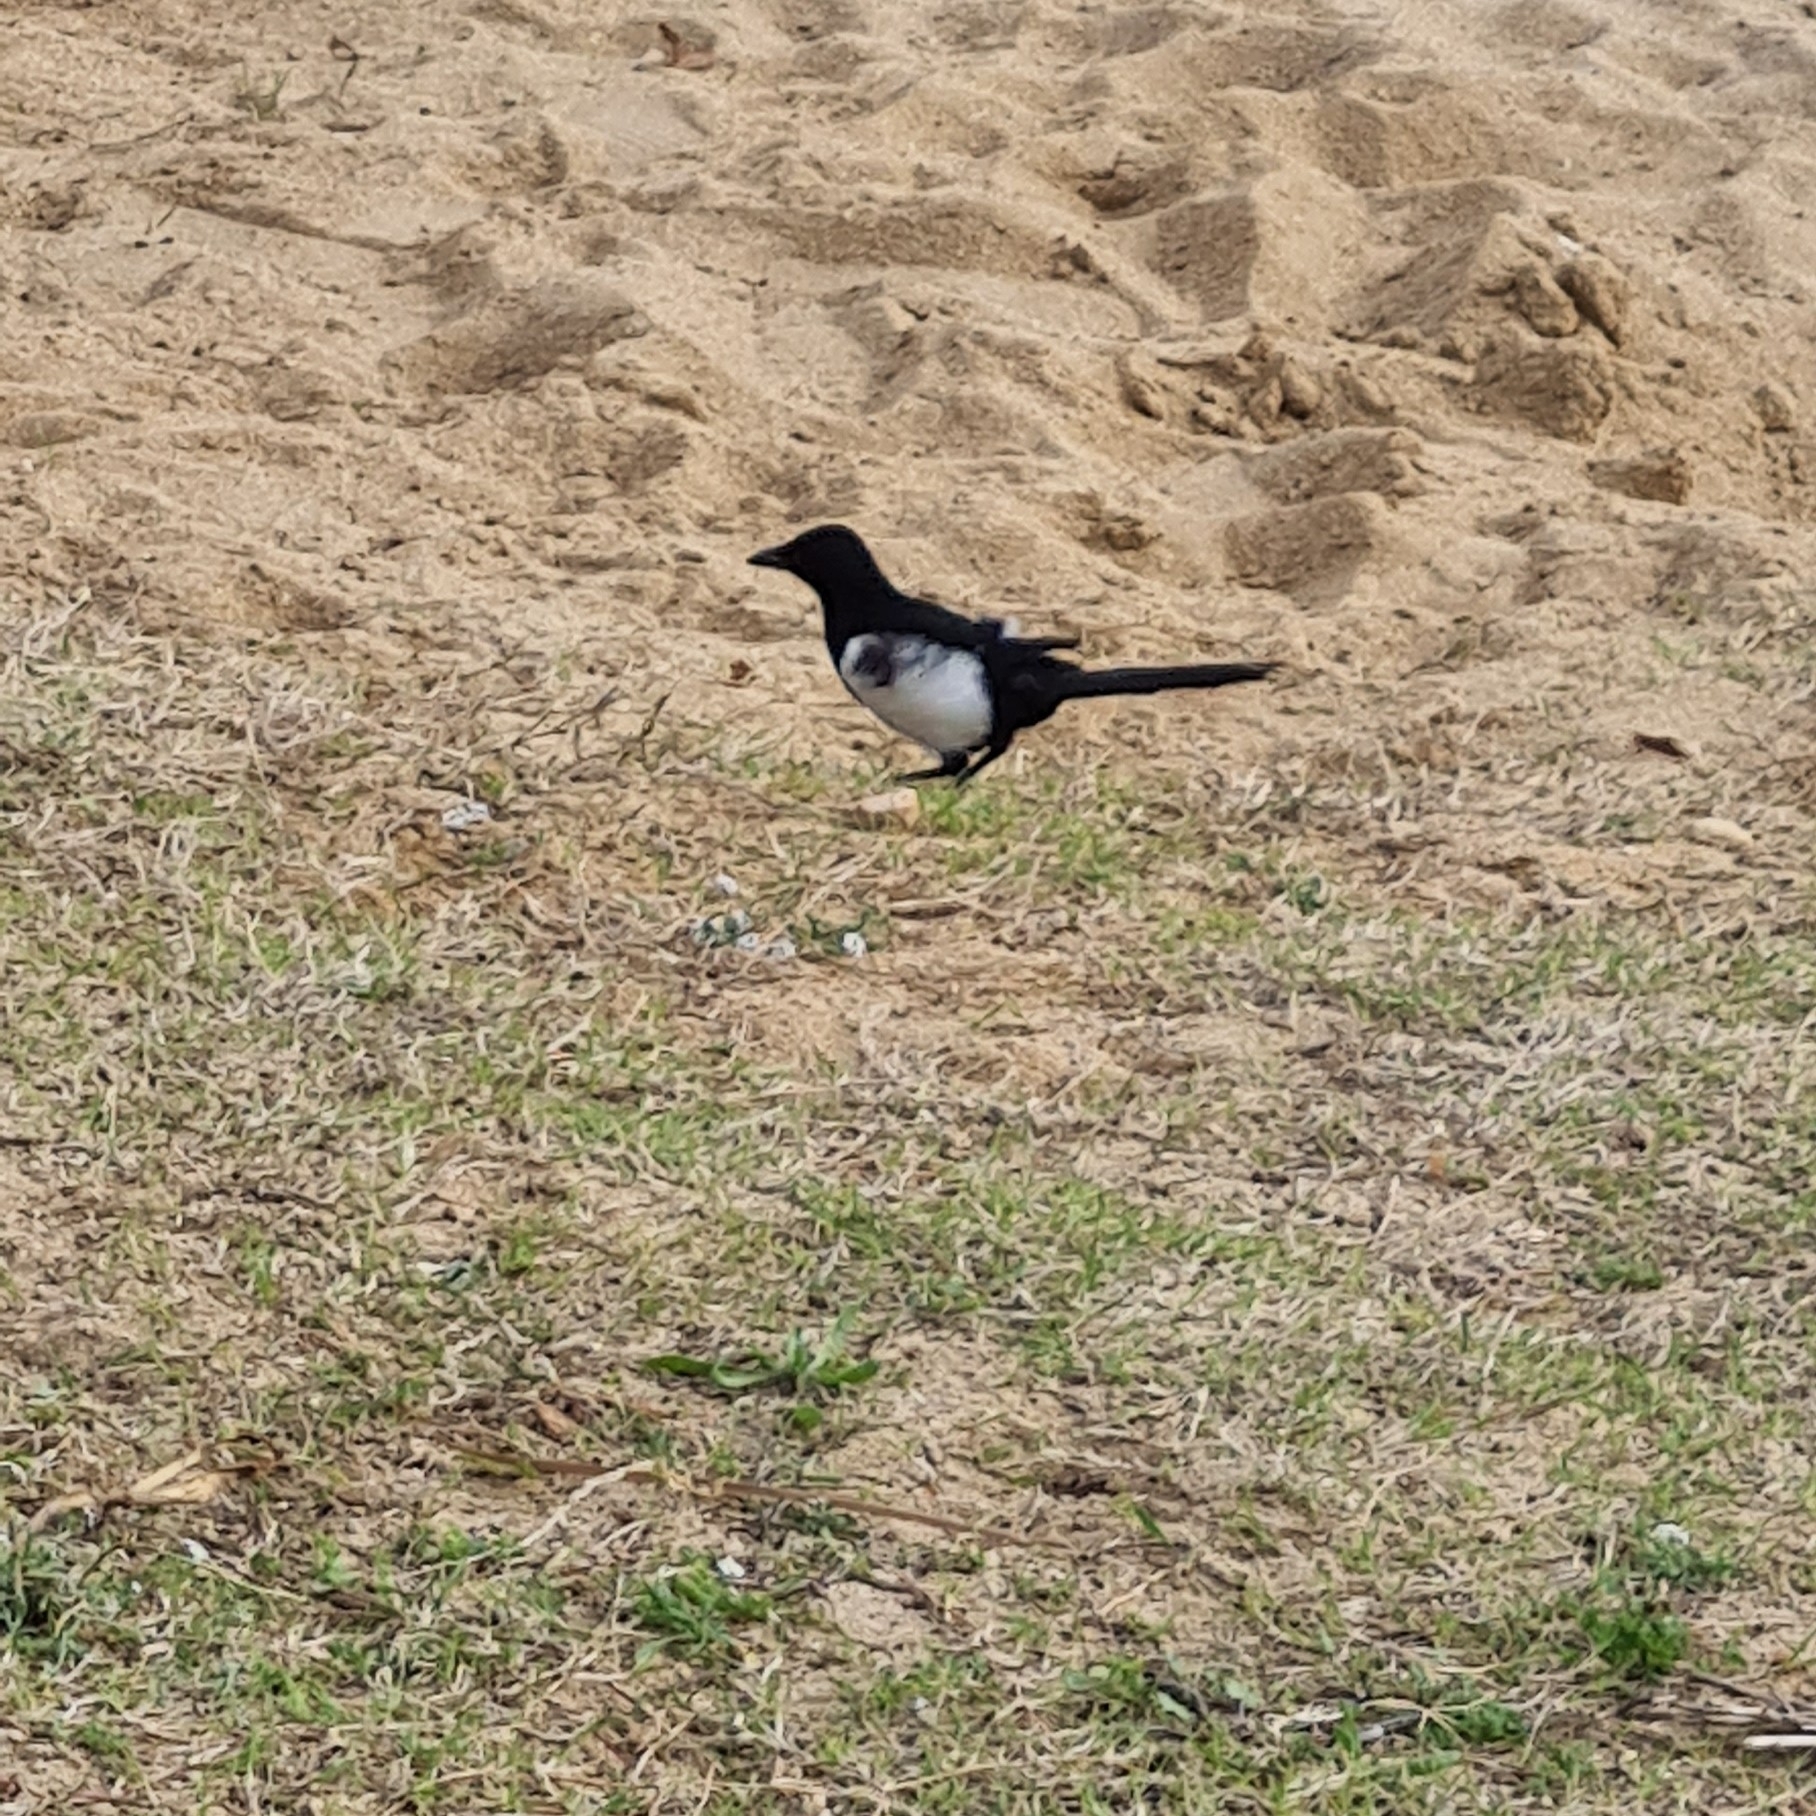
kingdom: Animalia
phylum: Chordata
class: Aves
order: Passeriformes
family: Corvidae
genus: Pica
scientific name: Pica pica
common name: Eurasian magpie
